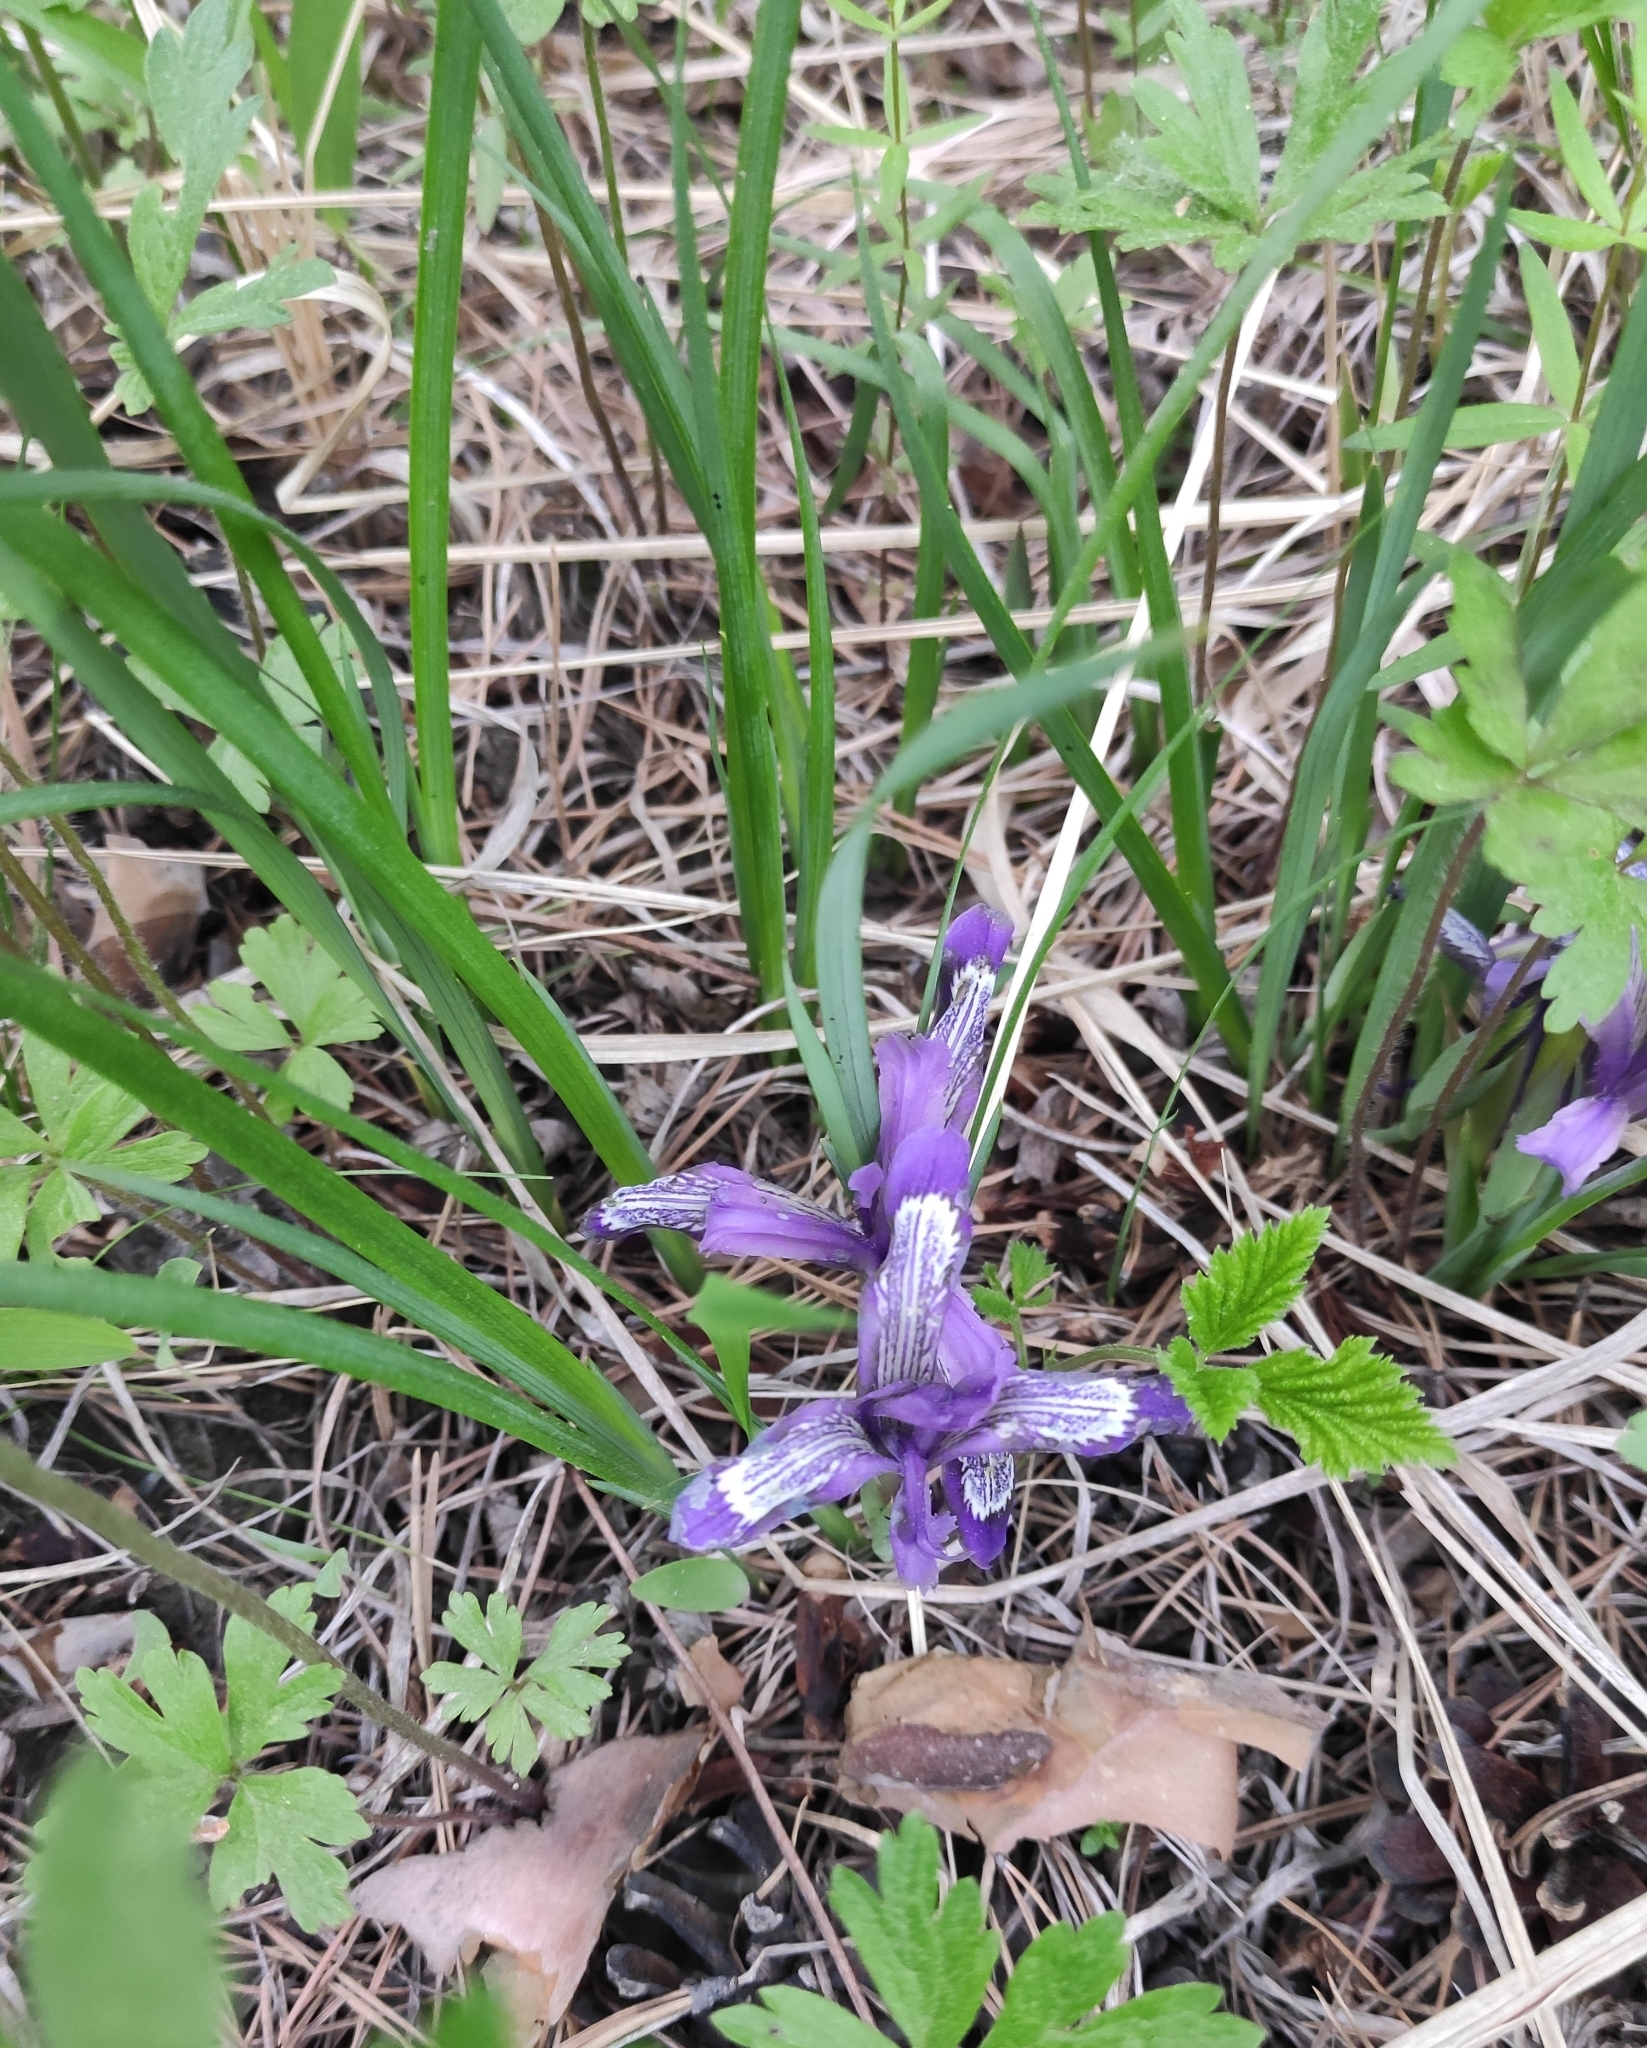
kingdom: Plantae
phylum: Tracheophyta
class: Liliopsida
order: Asparagales
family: Iridaceae
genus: Iris
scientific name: Iris ruthenica
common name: Purple-bract iris
